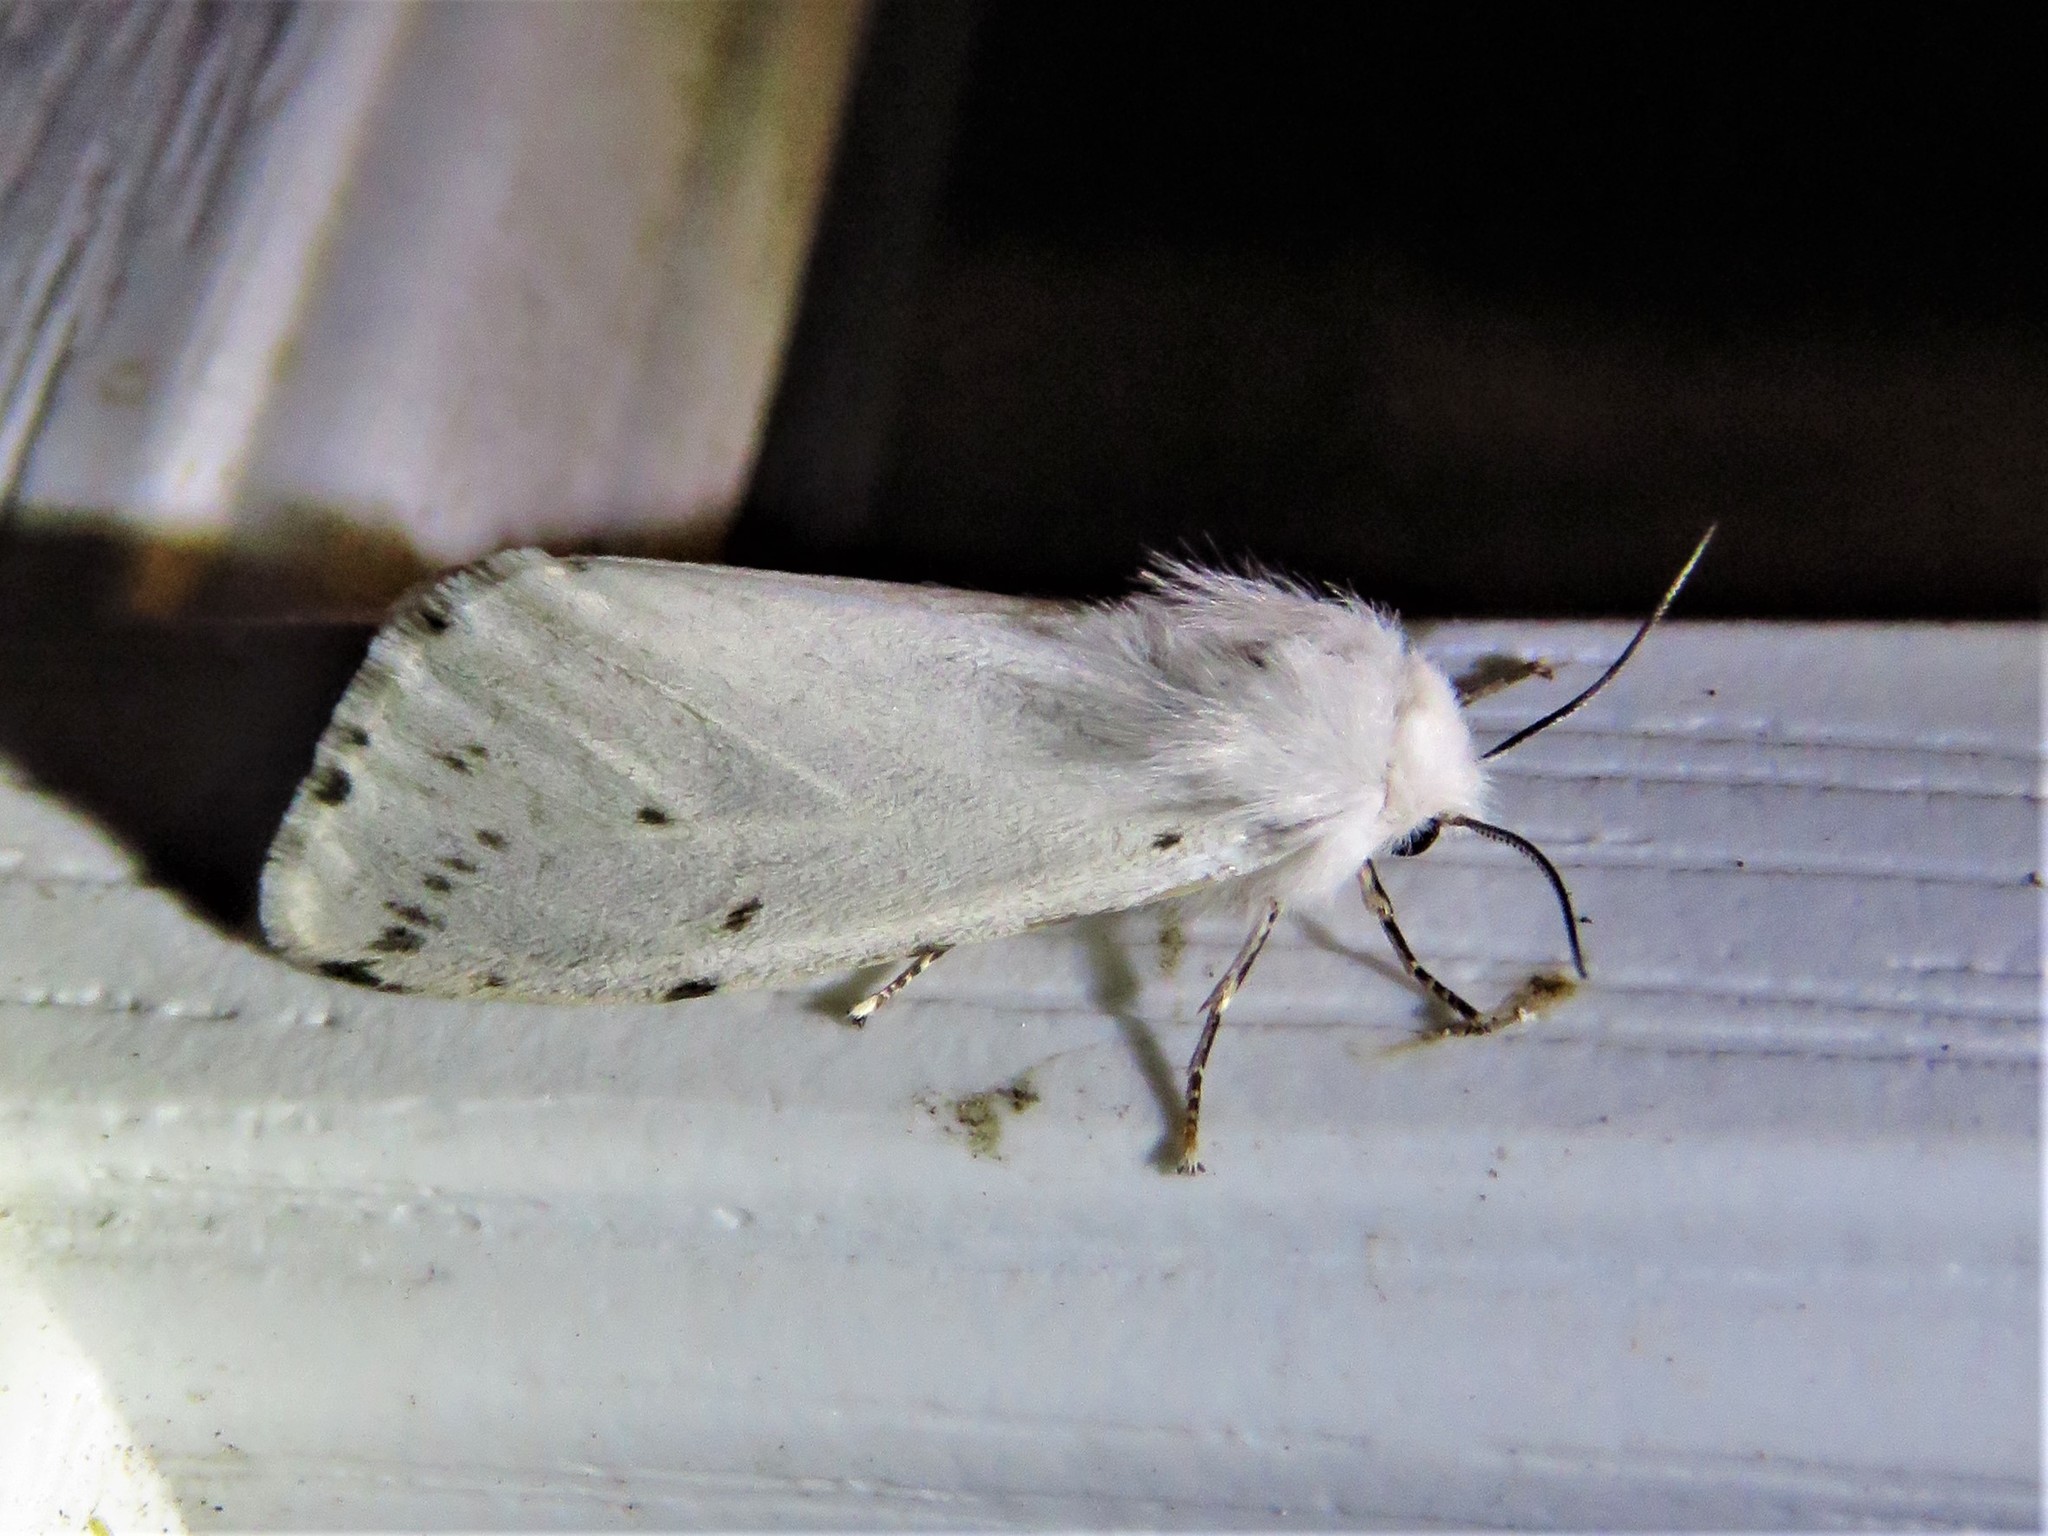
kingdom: Animalia
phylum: Arthropoda
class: Insecta
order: Lepidoptera
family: Erebidae
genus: Hyphantria
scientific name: Hyphantria cunea
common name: American white moth
